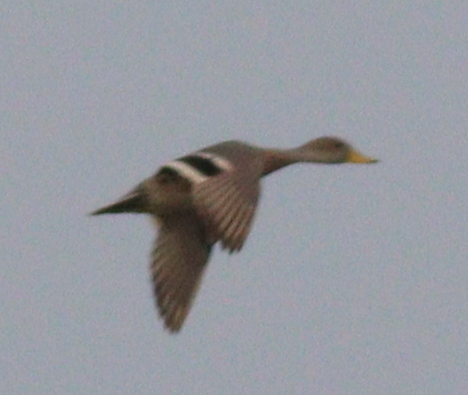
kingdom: Animalia
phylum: Chordata
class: Aves
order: Anseriformes
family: Anatidae
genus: Anas
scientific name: Anas georgica
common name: Yellow-billed pintail
